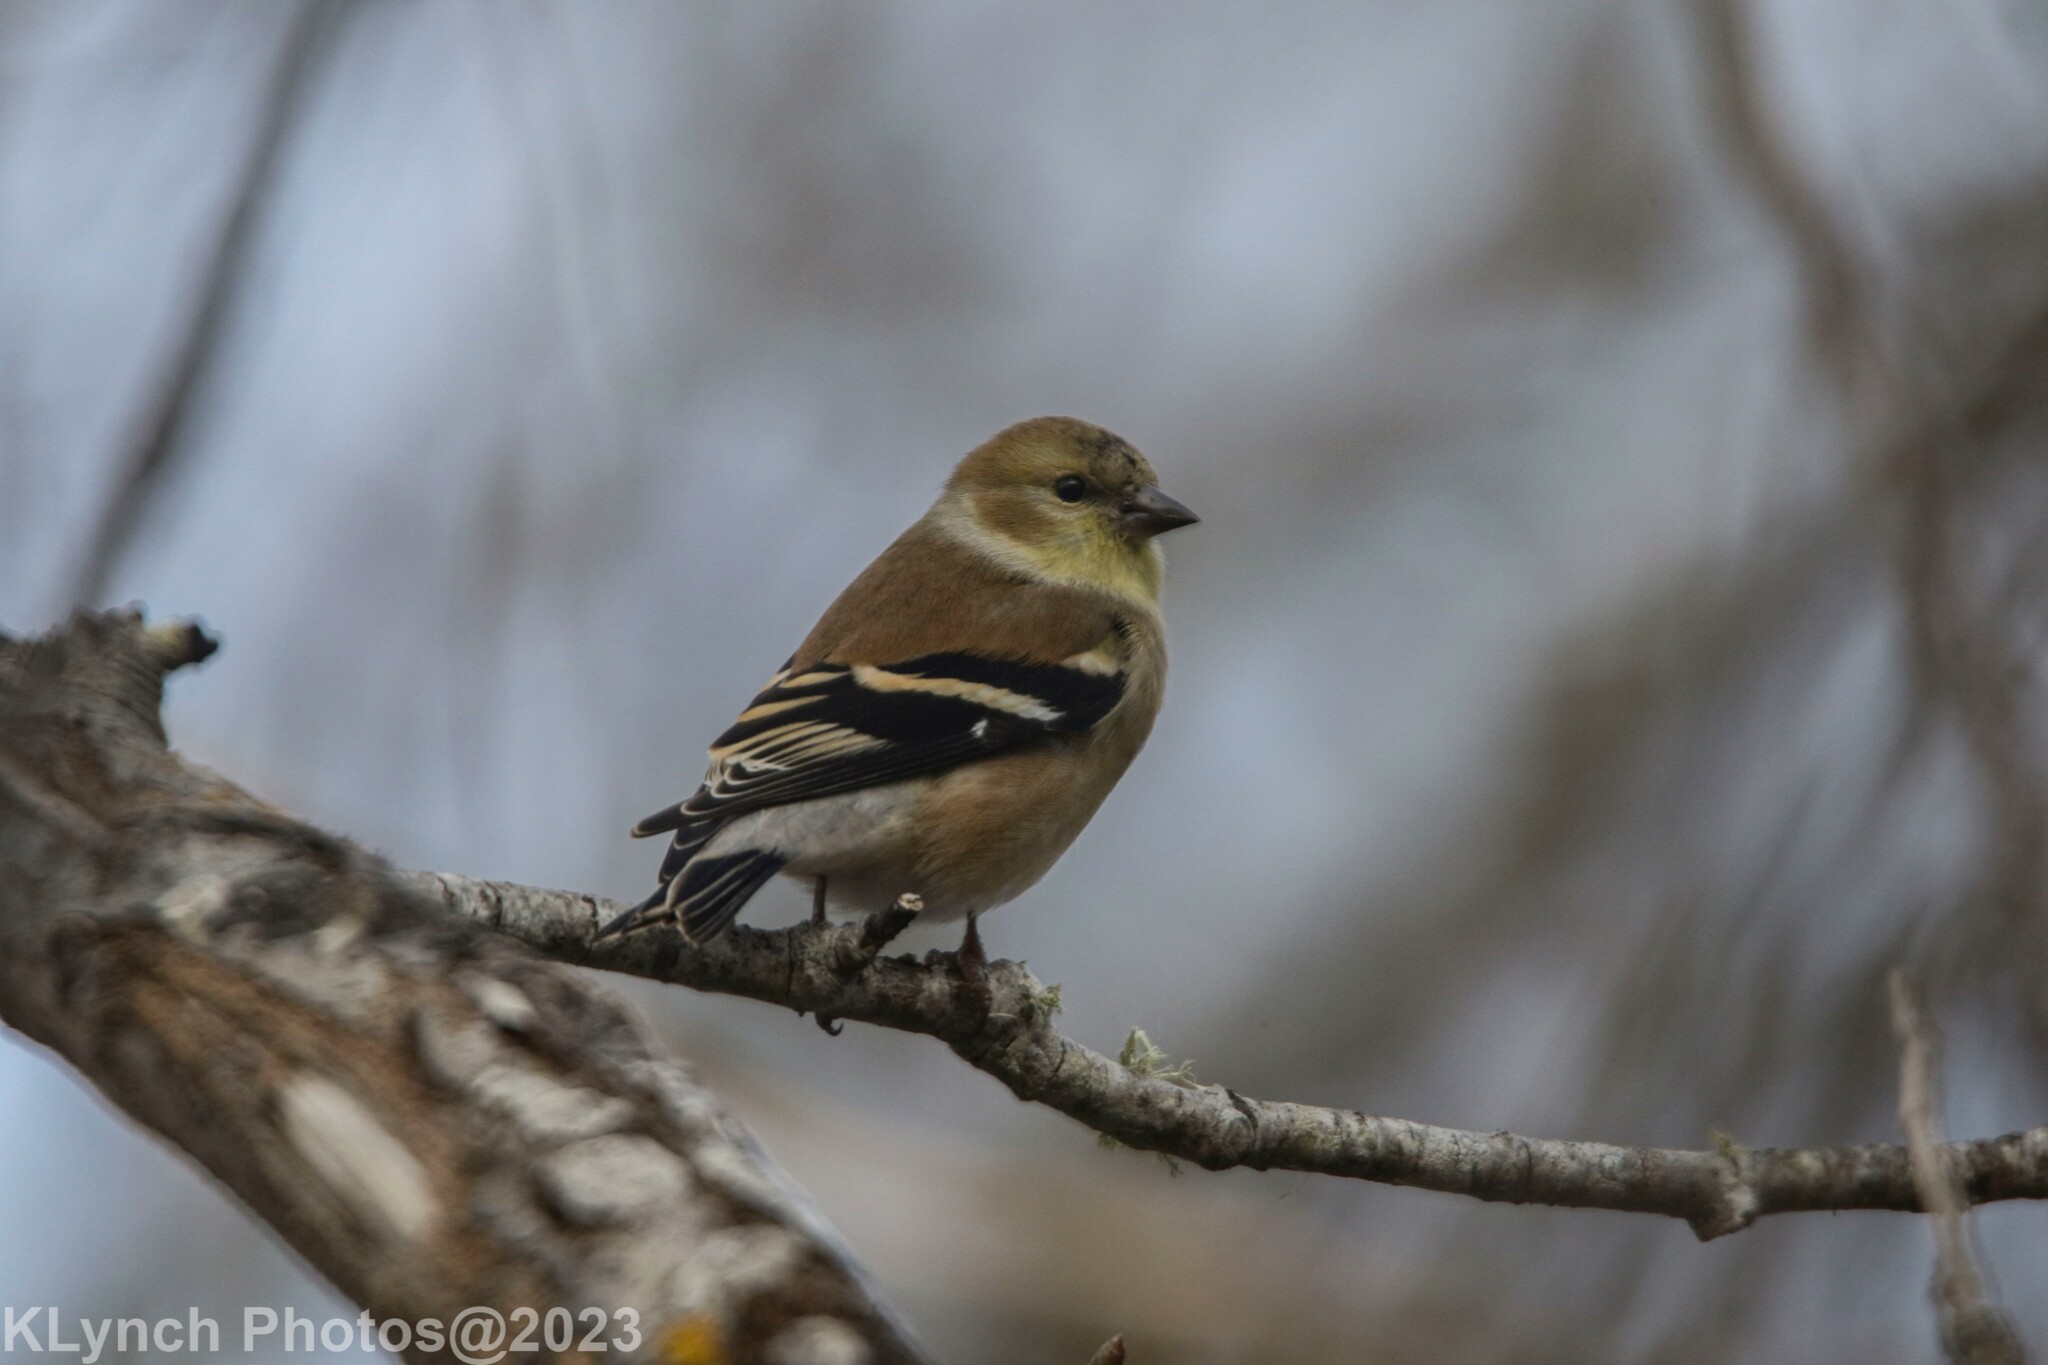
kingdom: Animalia
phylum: Chordata
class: Aves
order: Passeriformes
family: Fringillidae
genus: Spinus
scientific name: Spinus tristis
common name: American goldfinch
